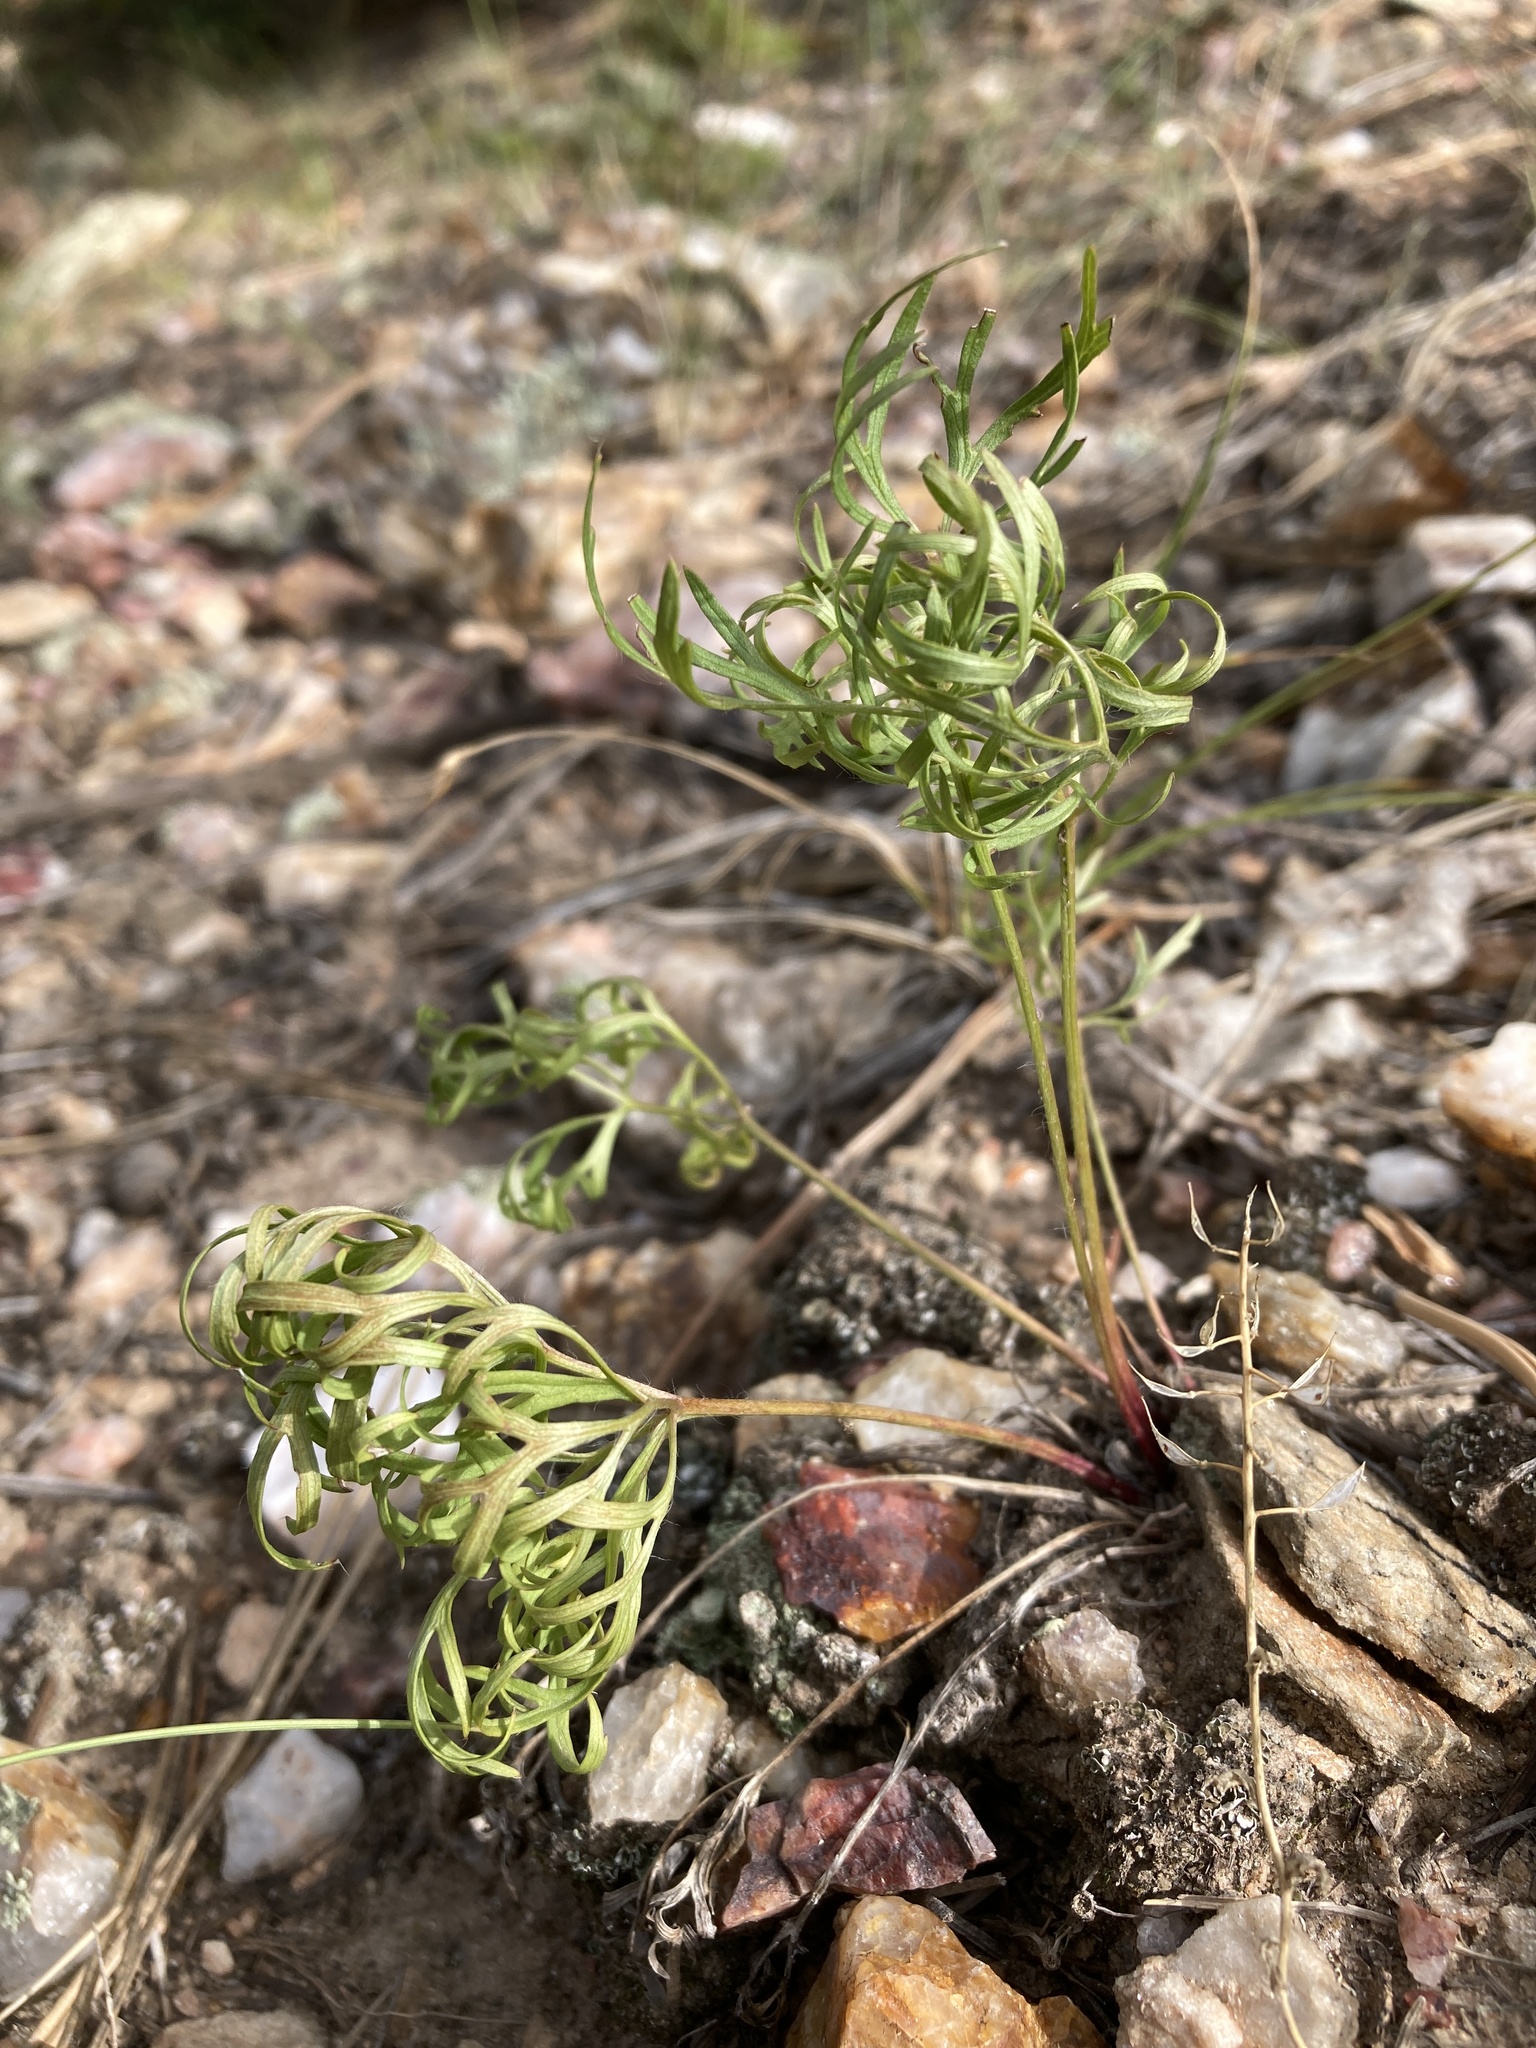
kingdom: Plantae
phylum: Tracheophyta
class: Magnoliopsida
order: Ranunculales
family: Ranunculaceae
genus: Pulsatilla
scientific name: Pulsatilla nuttalliana
